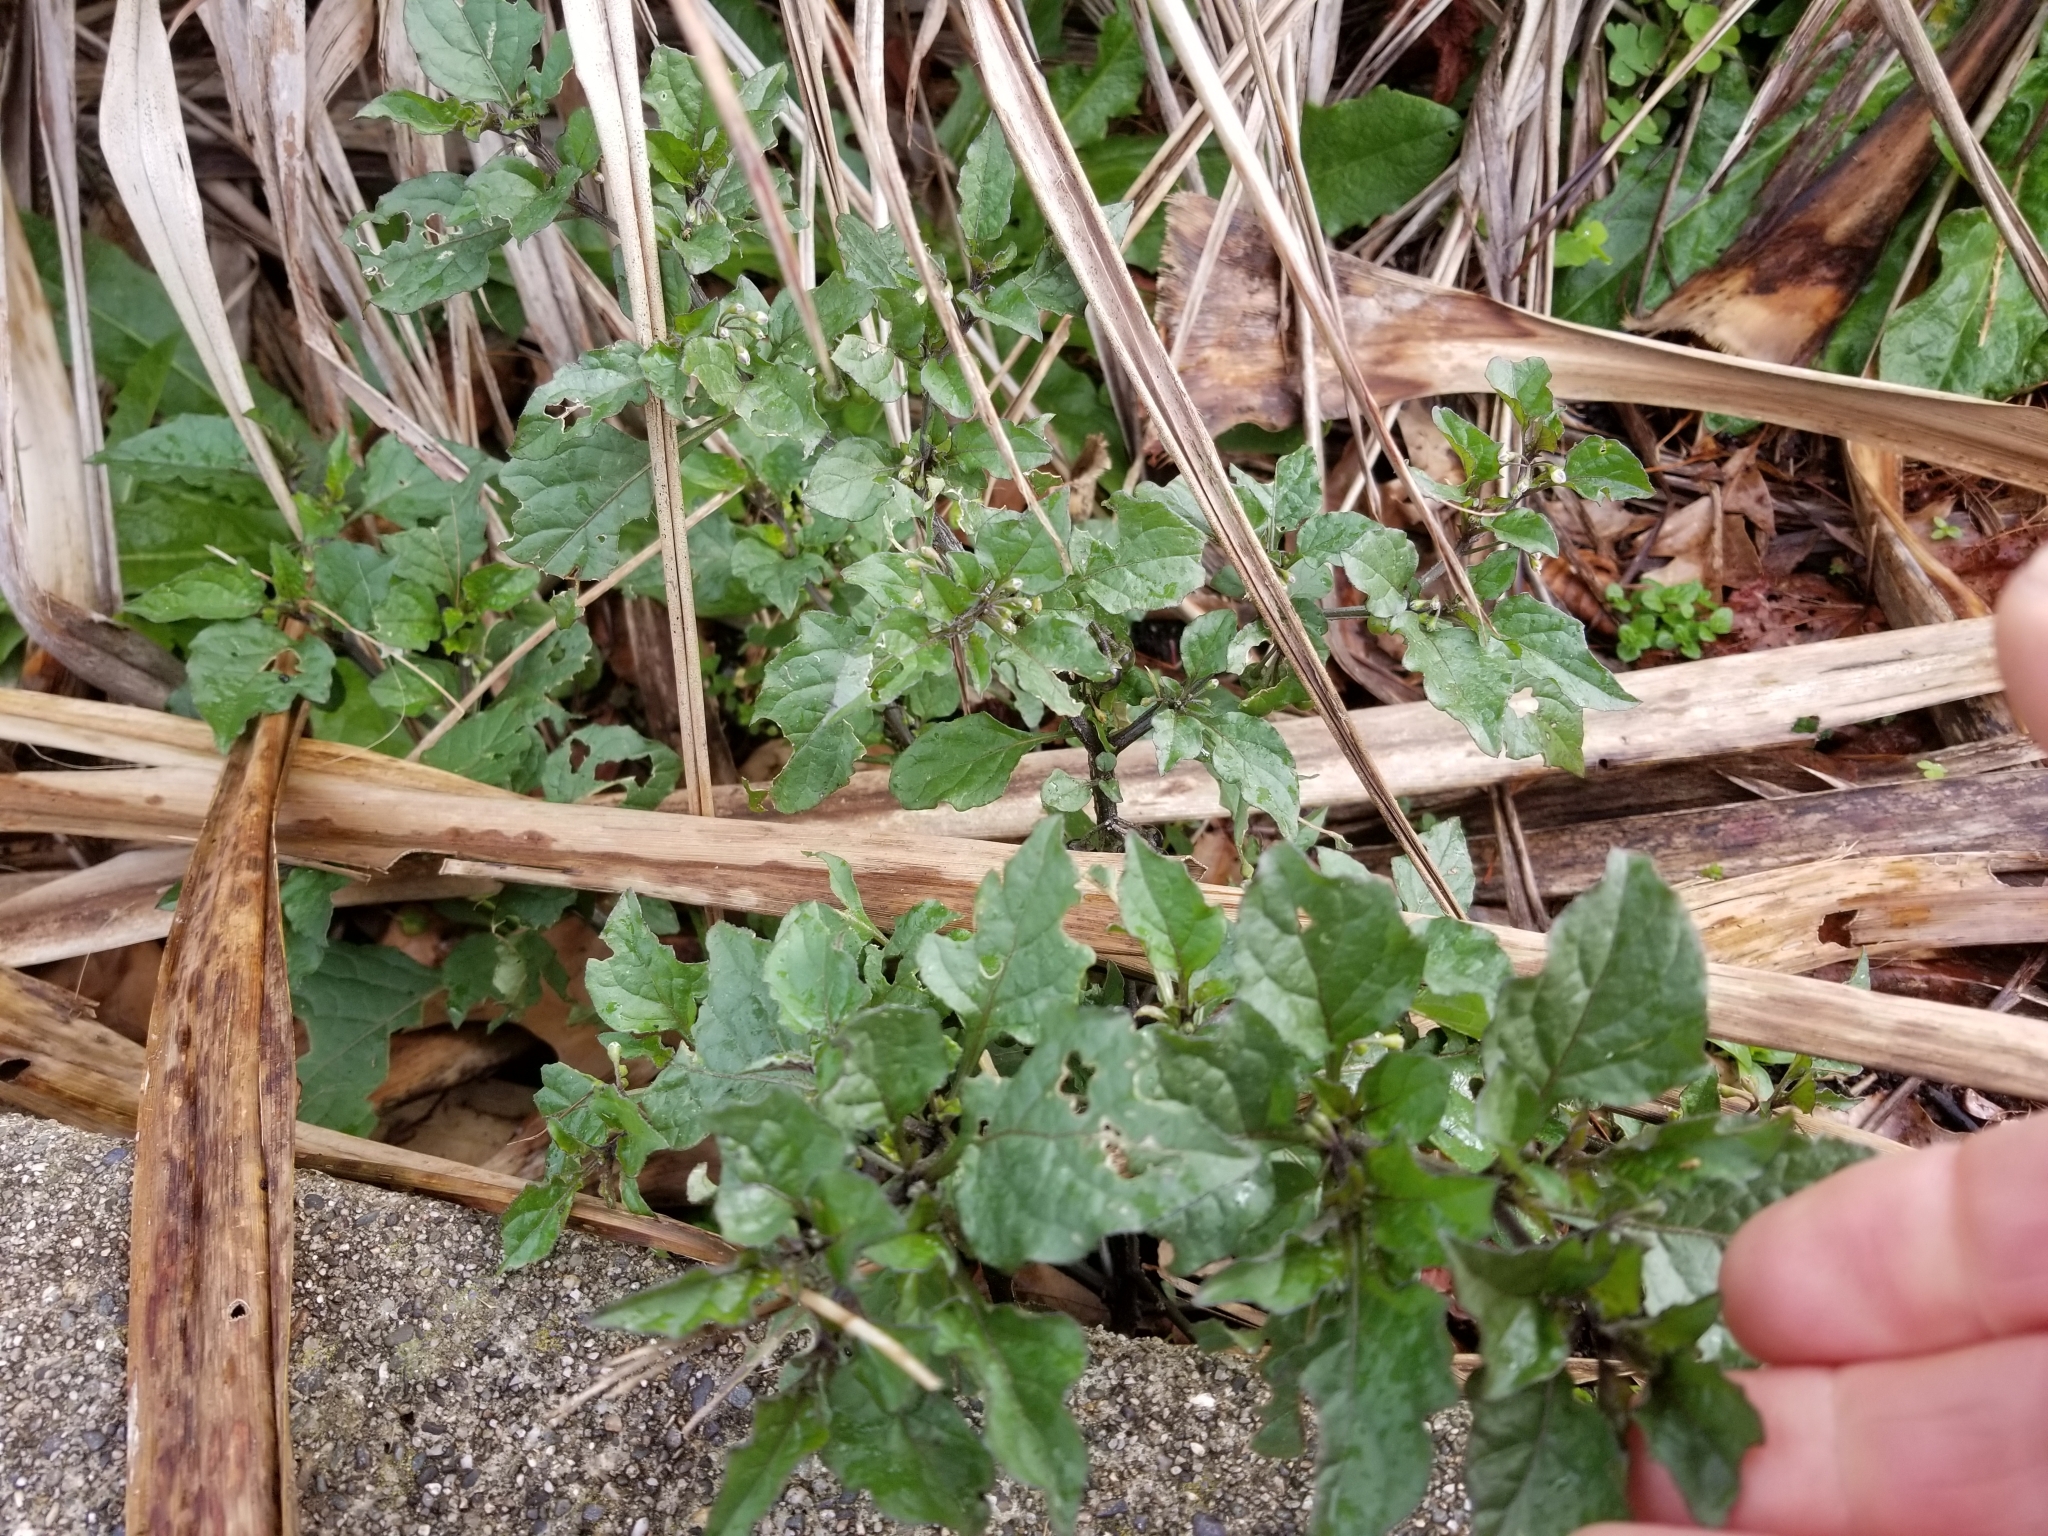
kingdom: Plantae
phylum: Tracheophyta
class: Magnoliopsida
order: Solanales
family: Solanaceae
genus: Solanum
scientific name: Solanum nigrum
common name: Black nightshade
